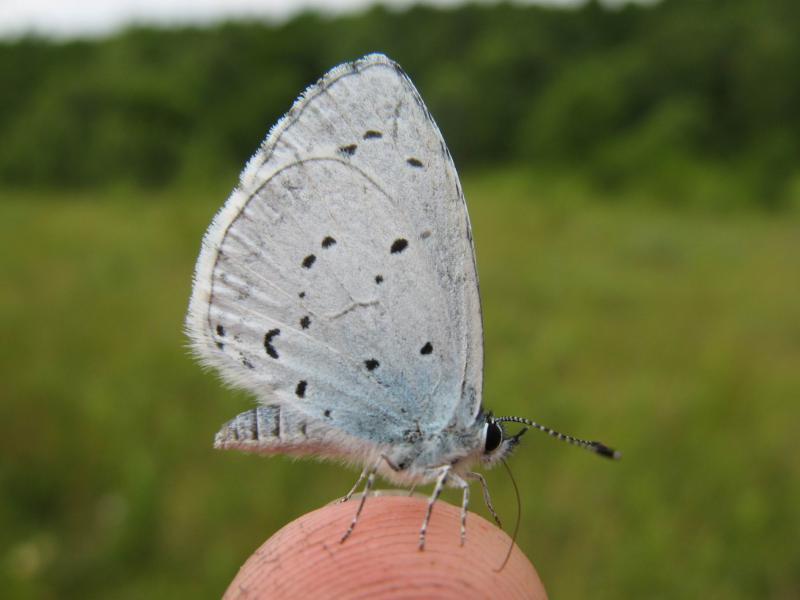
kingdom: Animalia
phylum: Arthropoda
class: Insecta
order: Lepidoptera
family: Lycaenidae
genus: Celastrina
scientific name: Celastrina argiolus
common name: Holly blue
